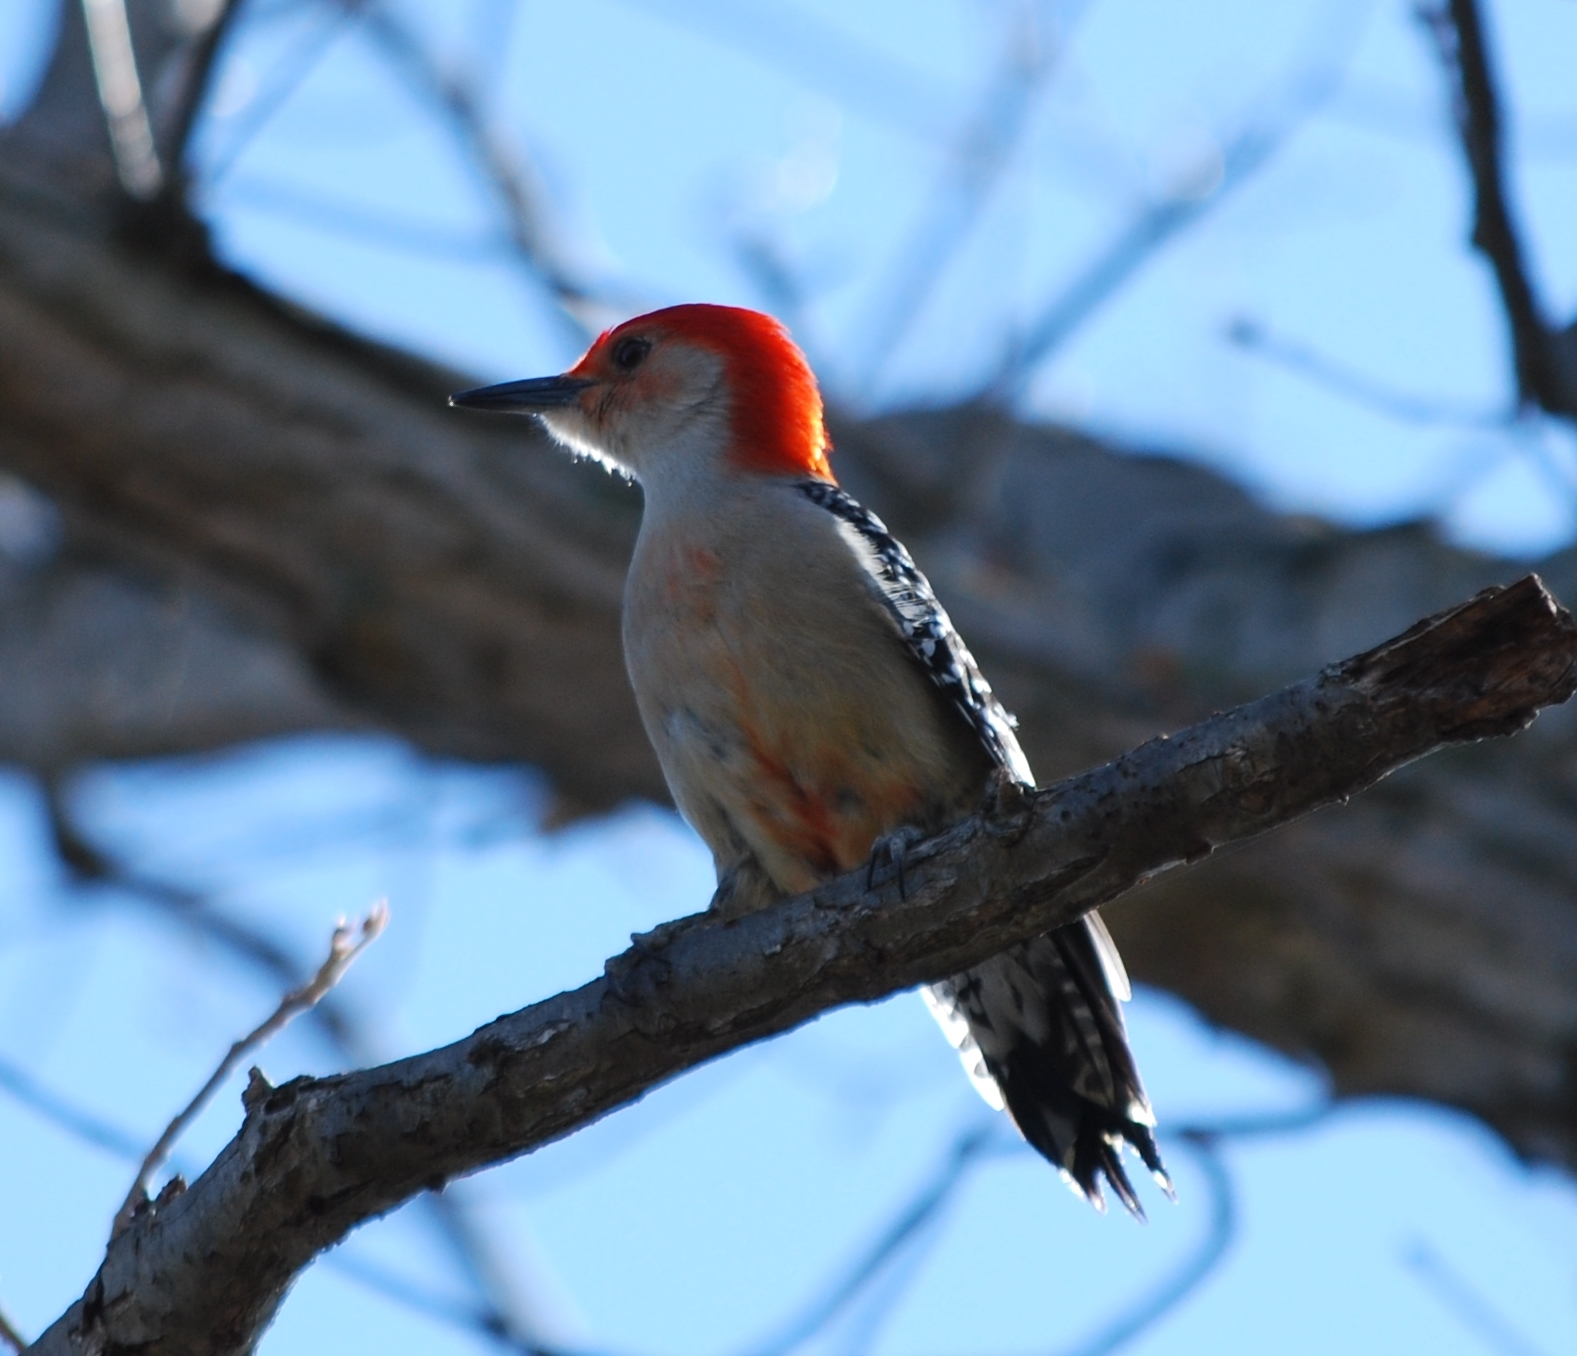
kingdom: Animalia
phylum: Chordata
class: Aves
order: Piciformes
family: Picidae
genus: Melanerpes
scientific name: Melanerpes carolinus
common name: Red-bellied woodpecker
